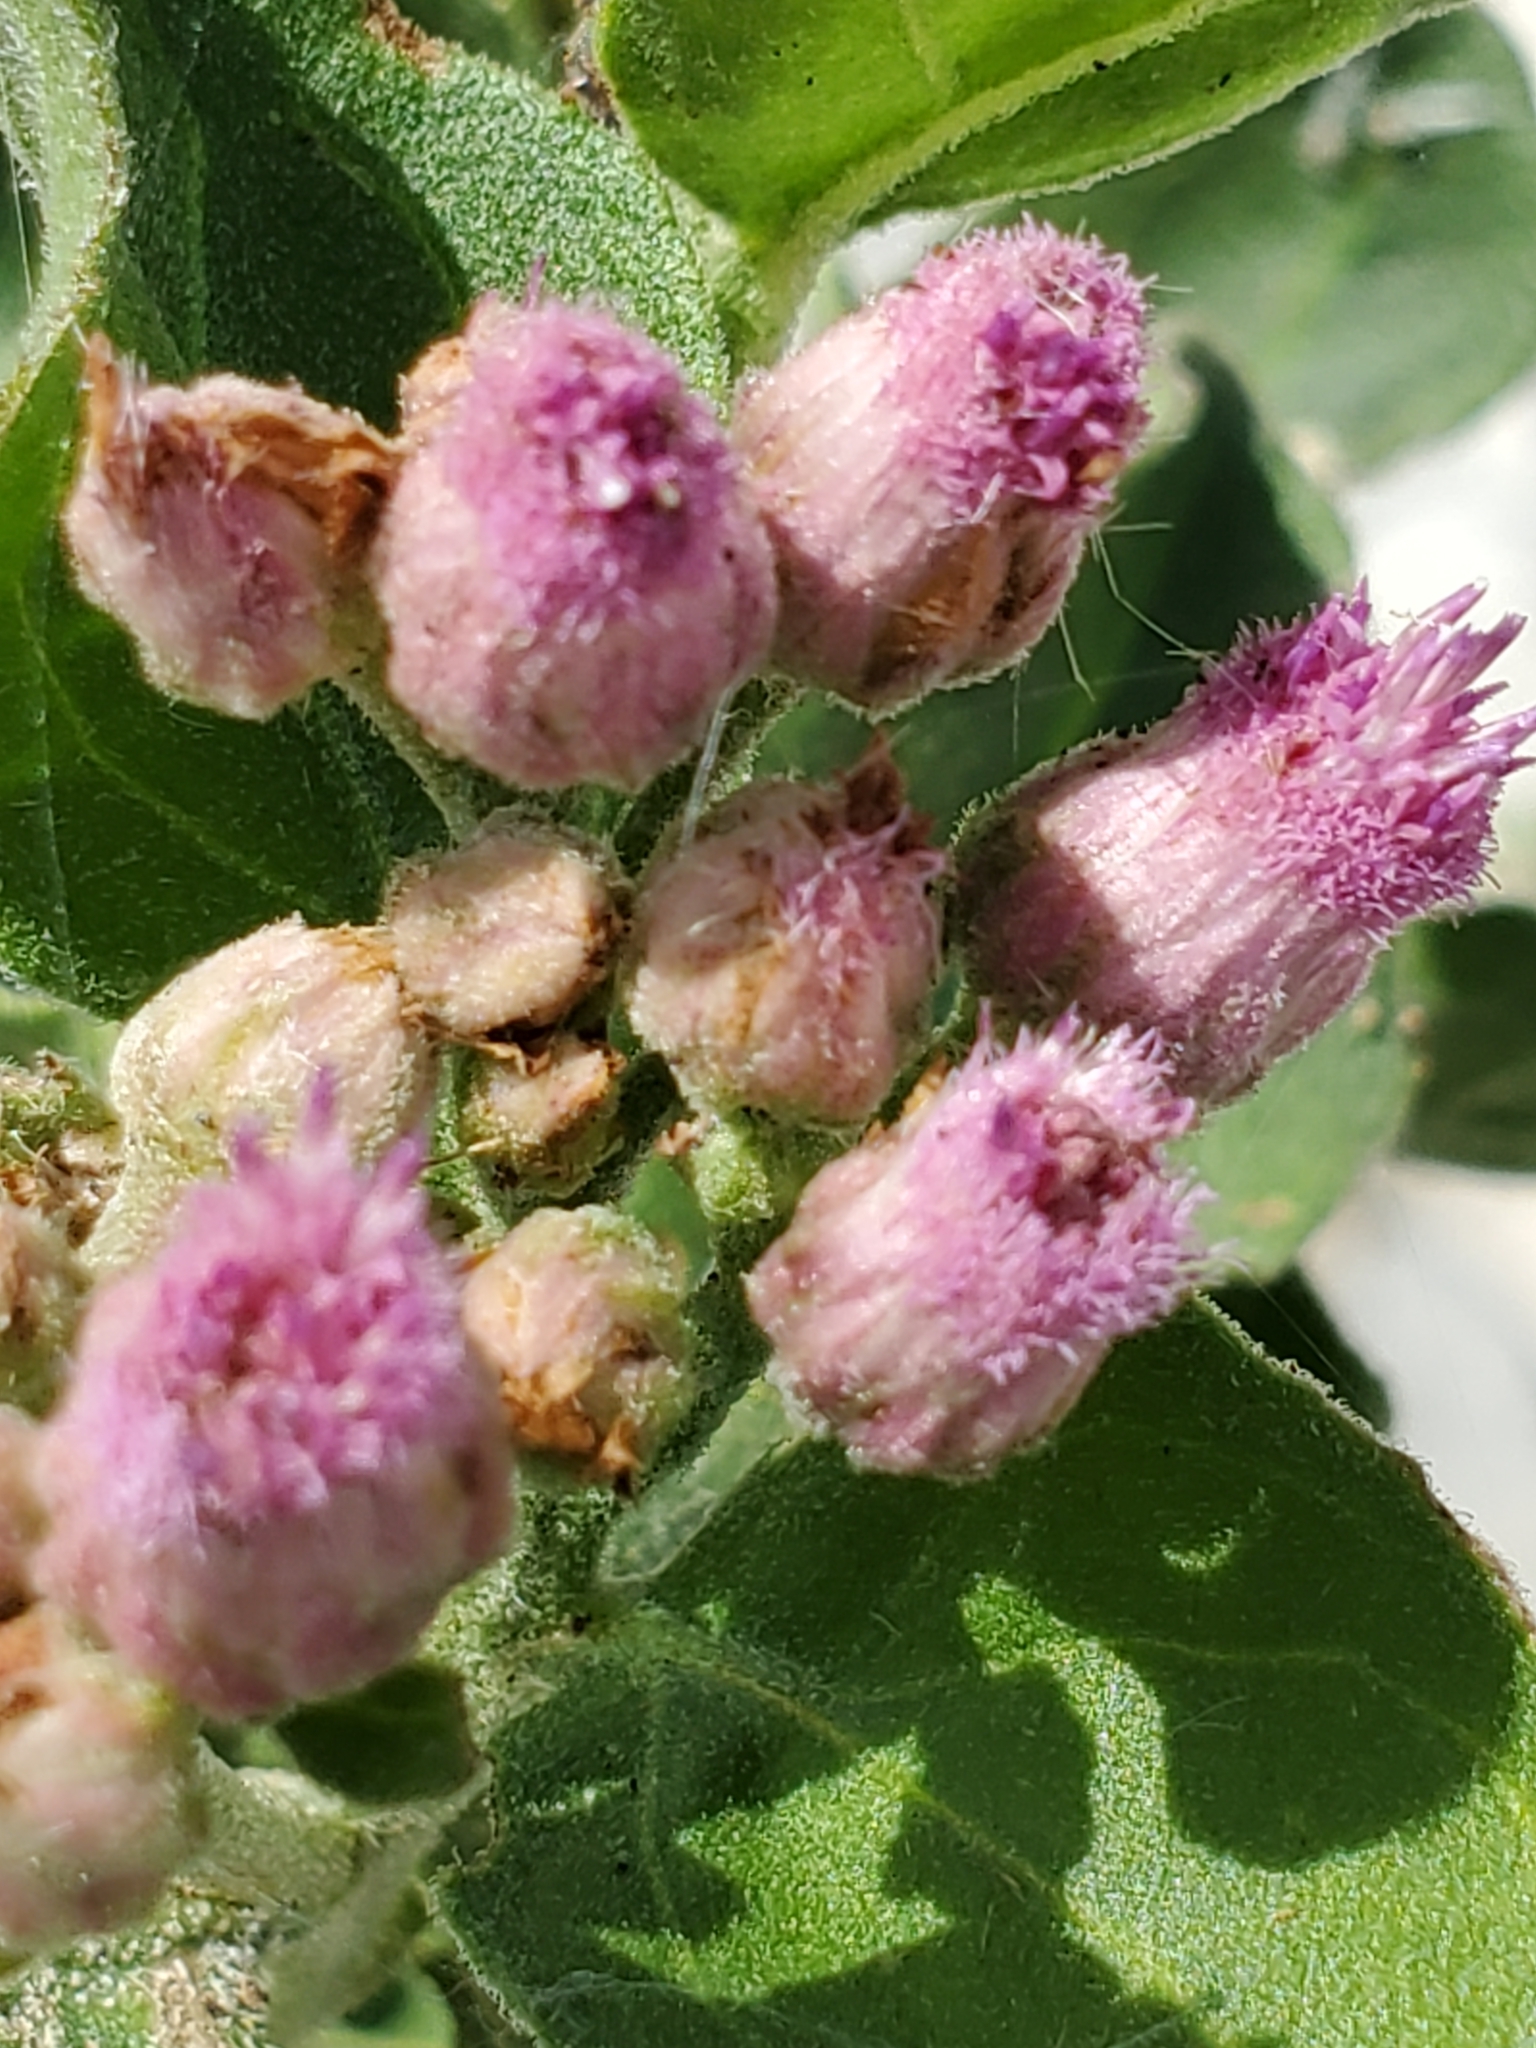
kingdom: Plantae
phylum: Tracheophyta
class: Magnoliopsida
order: Asterales
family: Asteraceae
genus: Pluchea
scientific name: Pluchea odorata
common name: Saltmarsh fleabane
